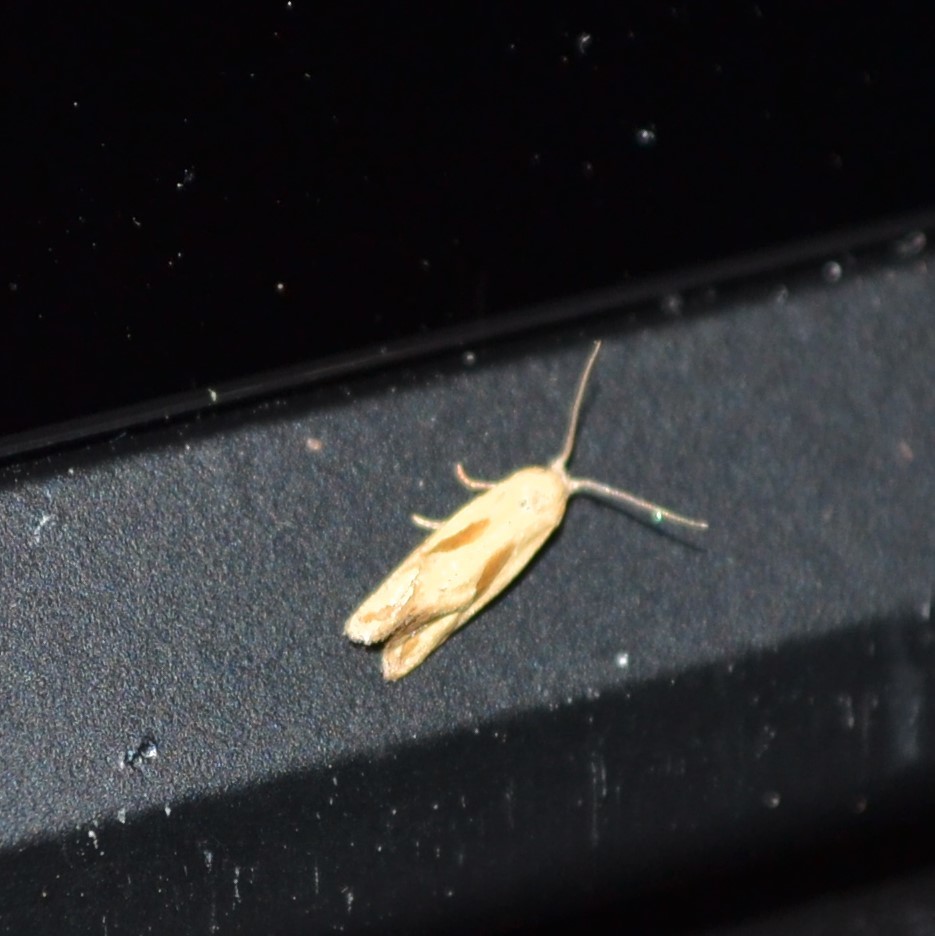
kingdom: Animalia
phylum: Arthropoda
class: Insecta
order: Lepidoptera
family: Tortricidae
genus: Eugnosta
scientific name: Eugnosta bimaculana
